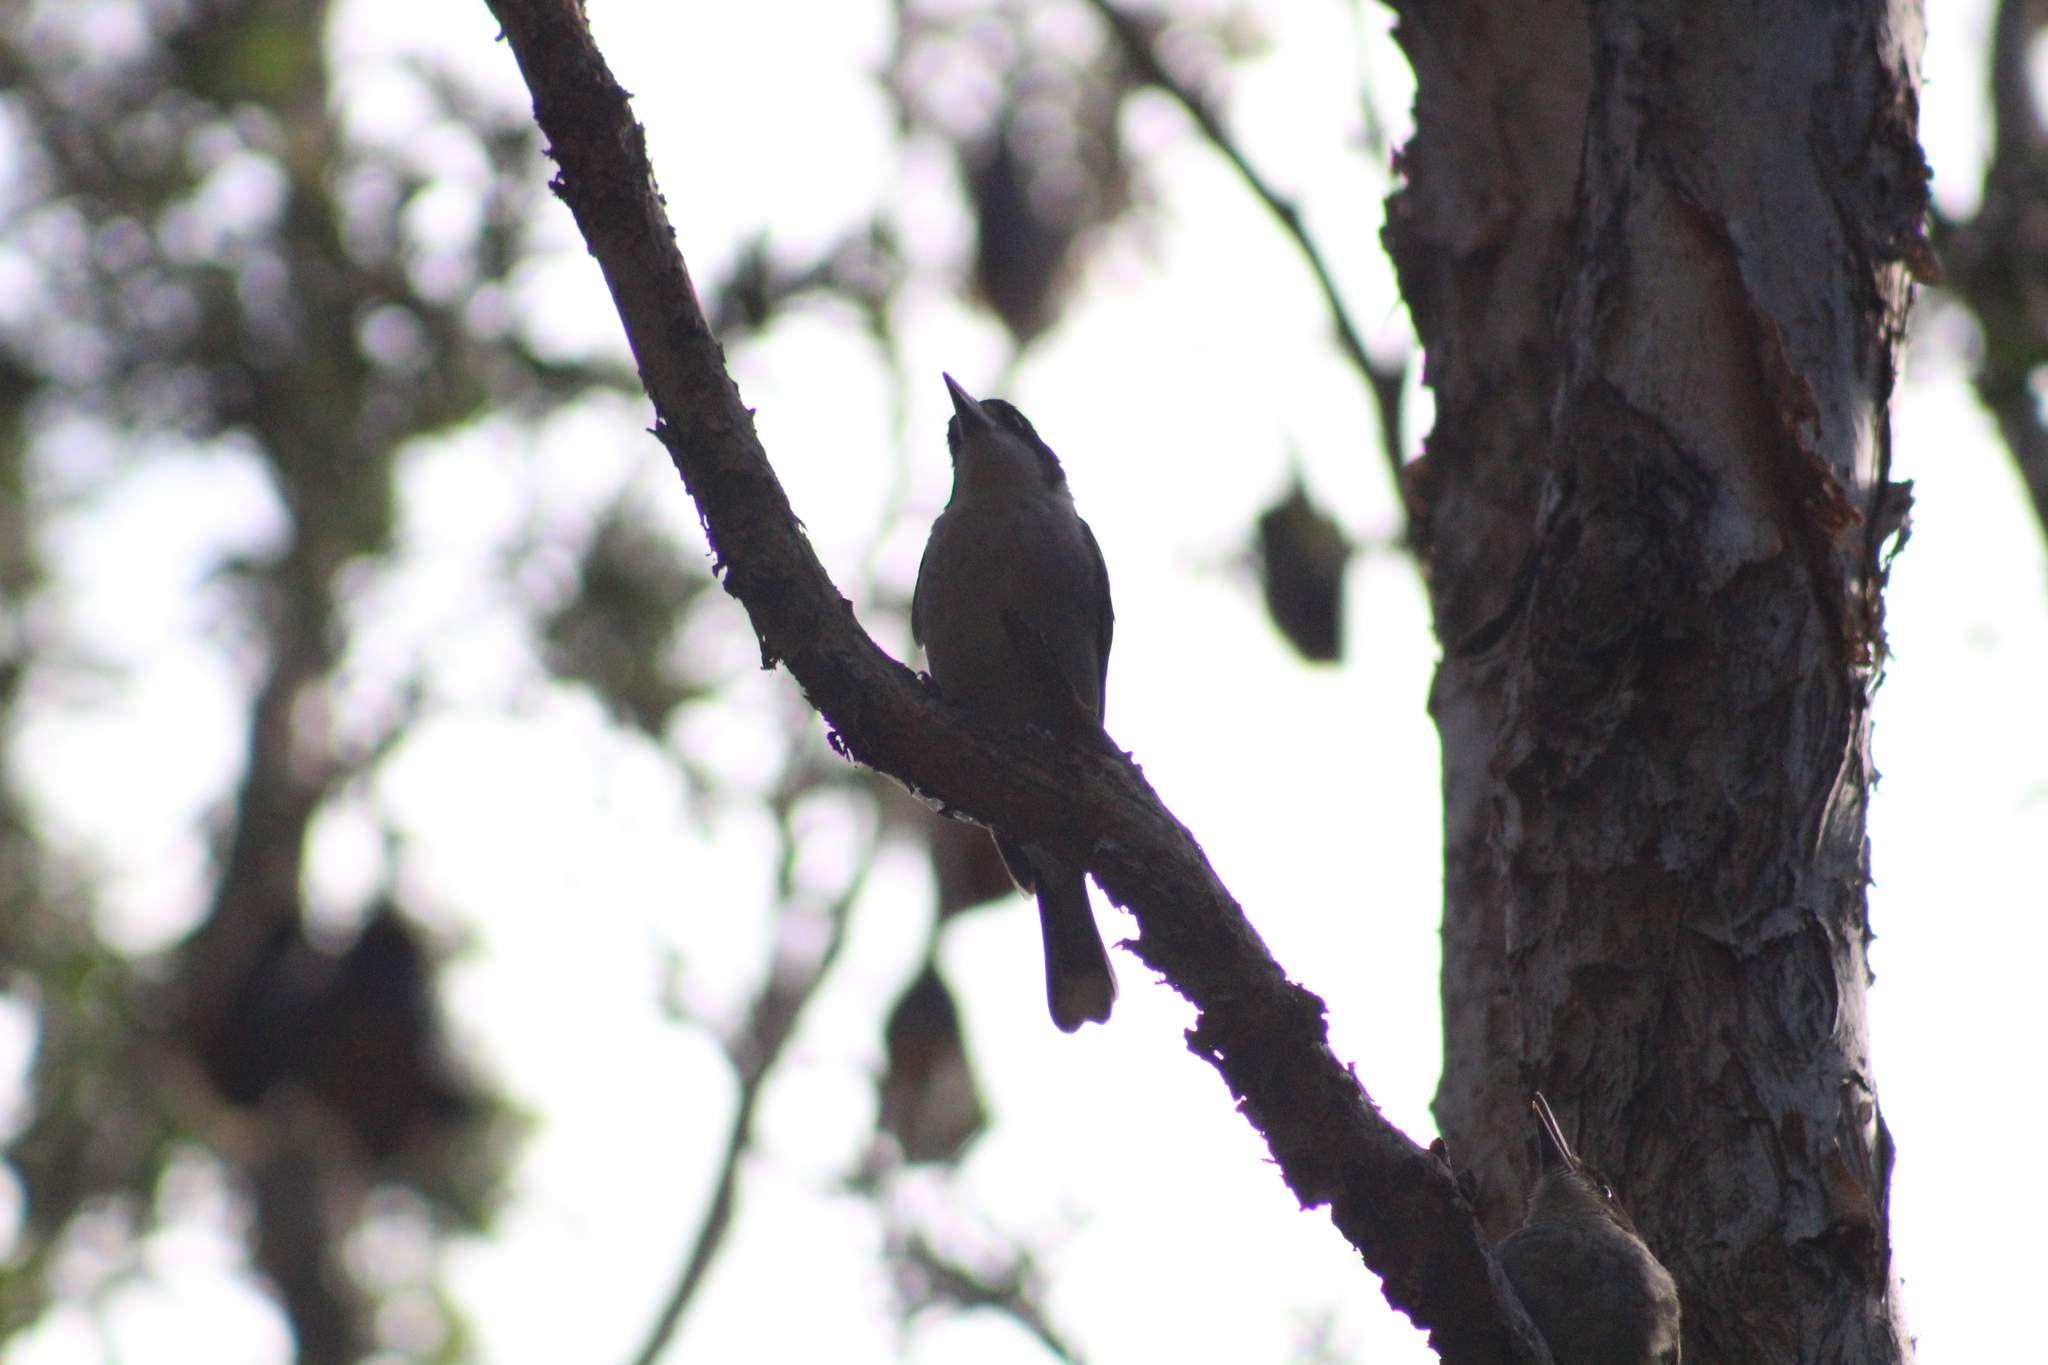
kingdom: Animalia
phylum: Chordata
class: Aves
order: Passeriformes
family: Cracticidae
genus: Cracticus
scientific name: Cracticus torquatus
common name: Grey butcherbird
